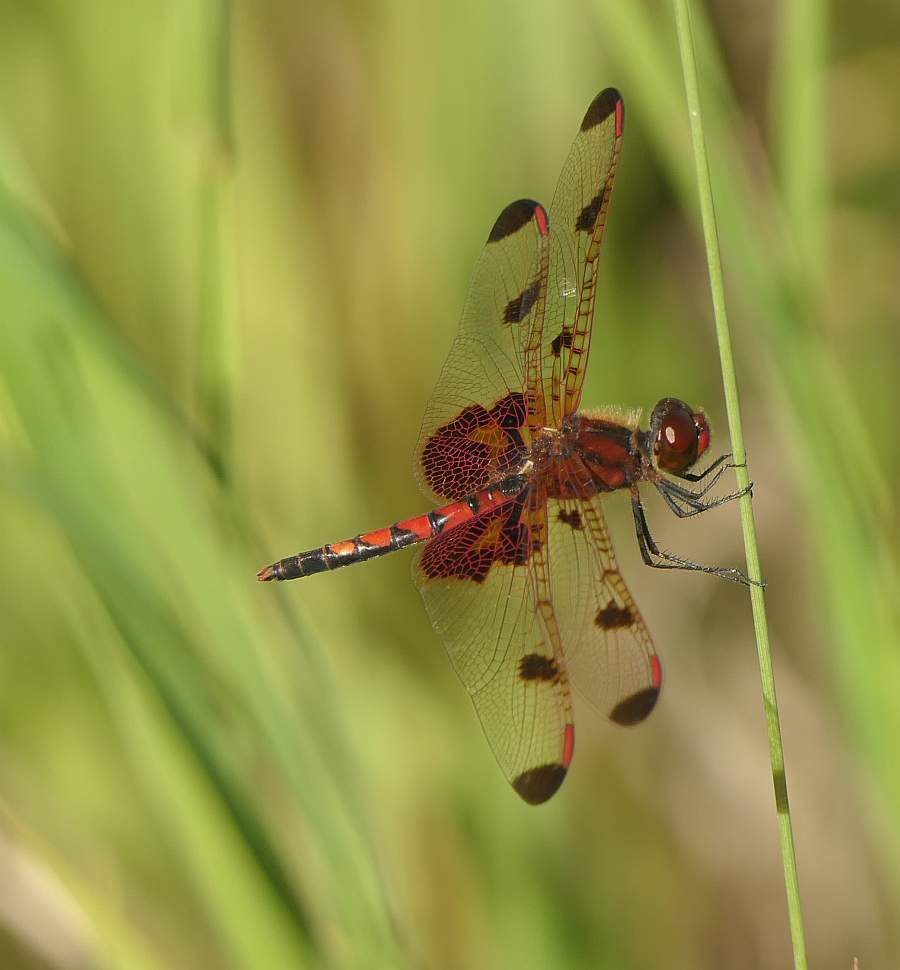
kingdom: Animalia
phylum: Arthropoda
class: Insecta
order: Odonata
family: Libellulidae
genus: Celithemis
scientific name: Celithemis elisa
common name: Calico pennant
